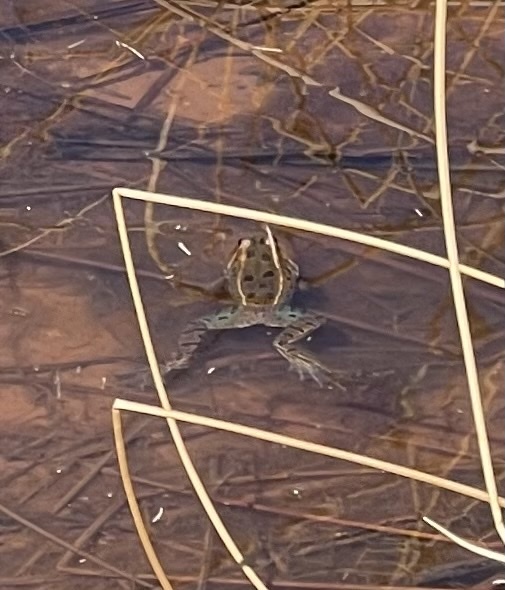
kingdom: Animalia
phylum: Chordata
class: Amphibia
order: Anura
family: Ranidae
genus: Lithobates
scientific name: Lithobates pipiens
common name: Northern leopard frog
